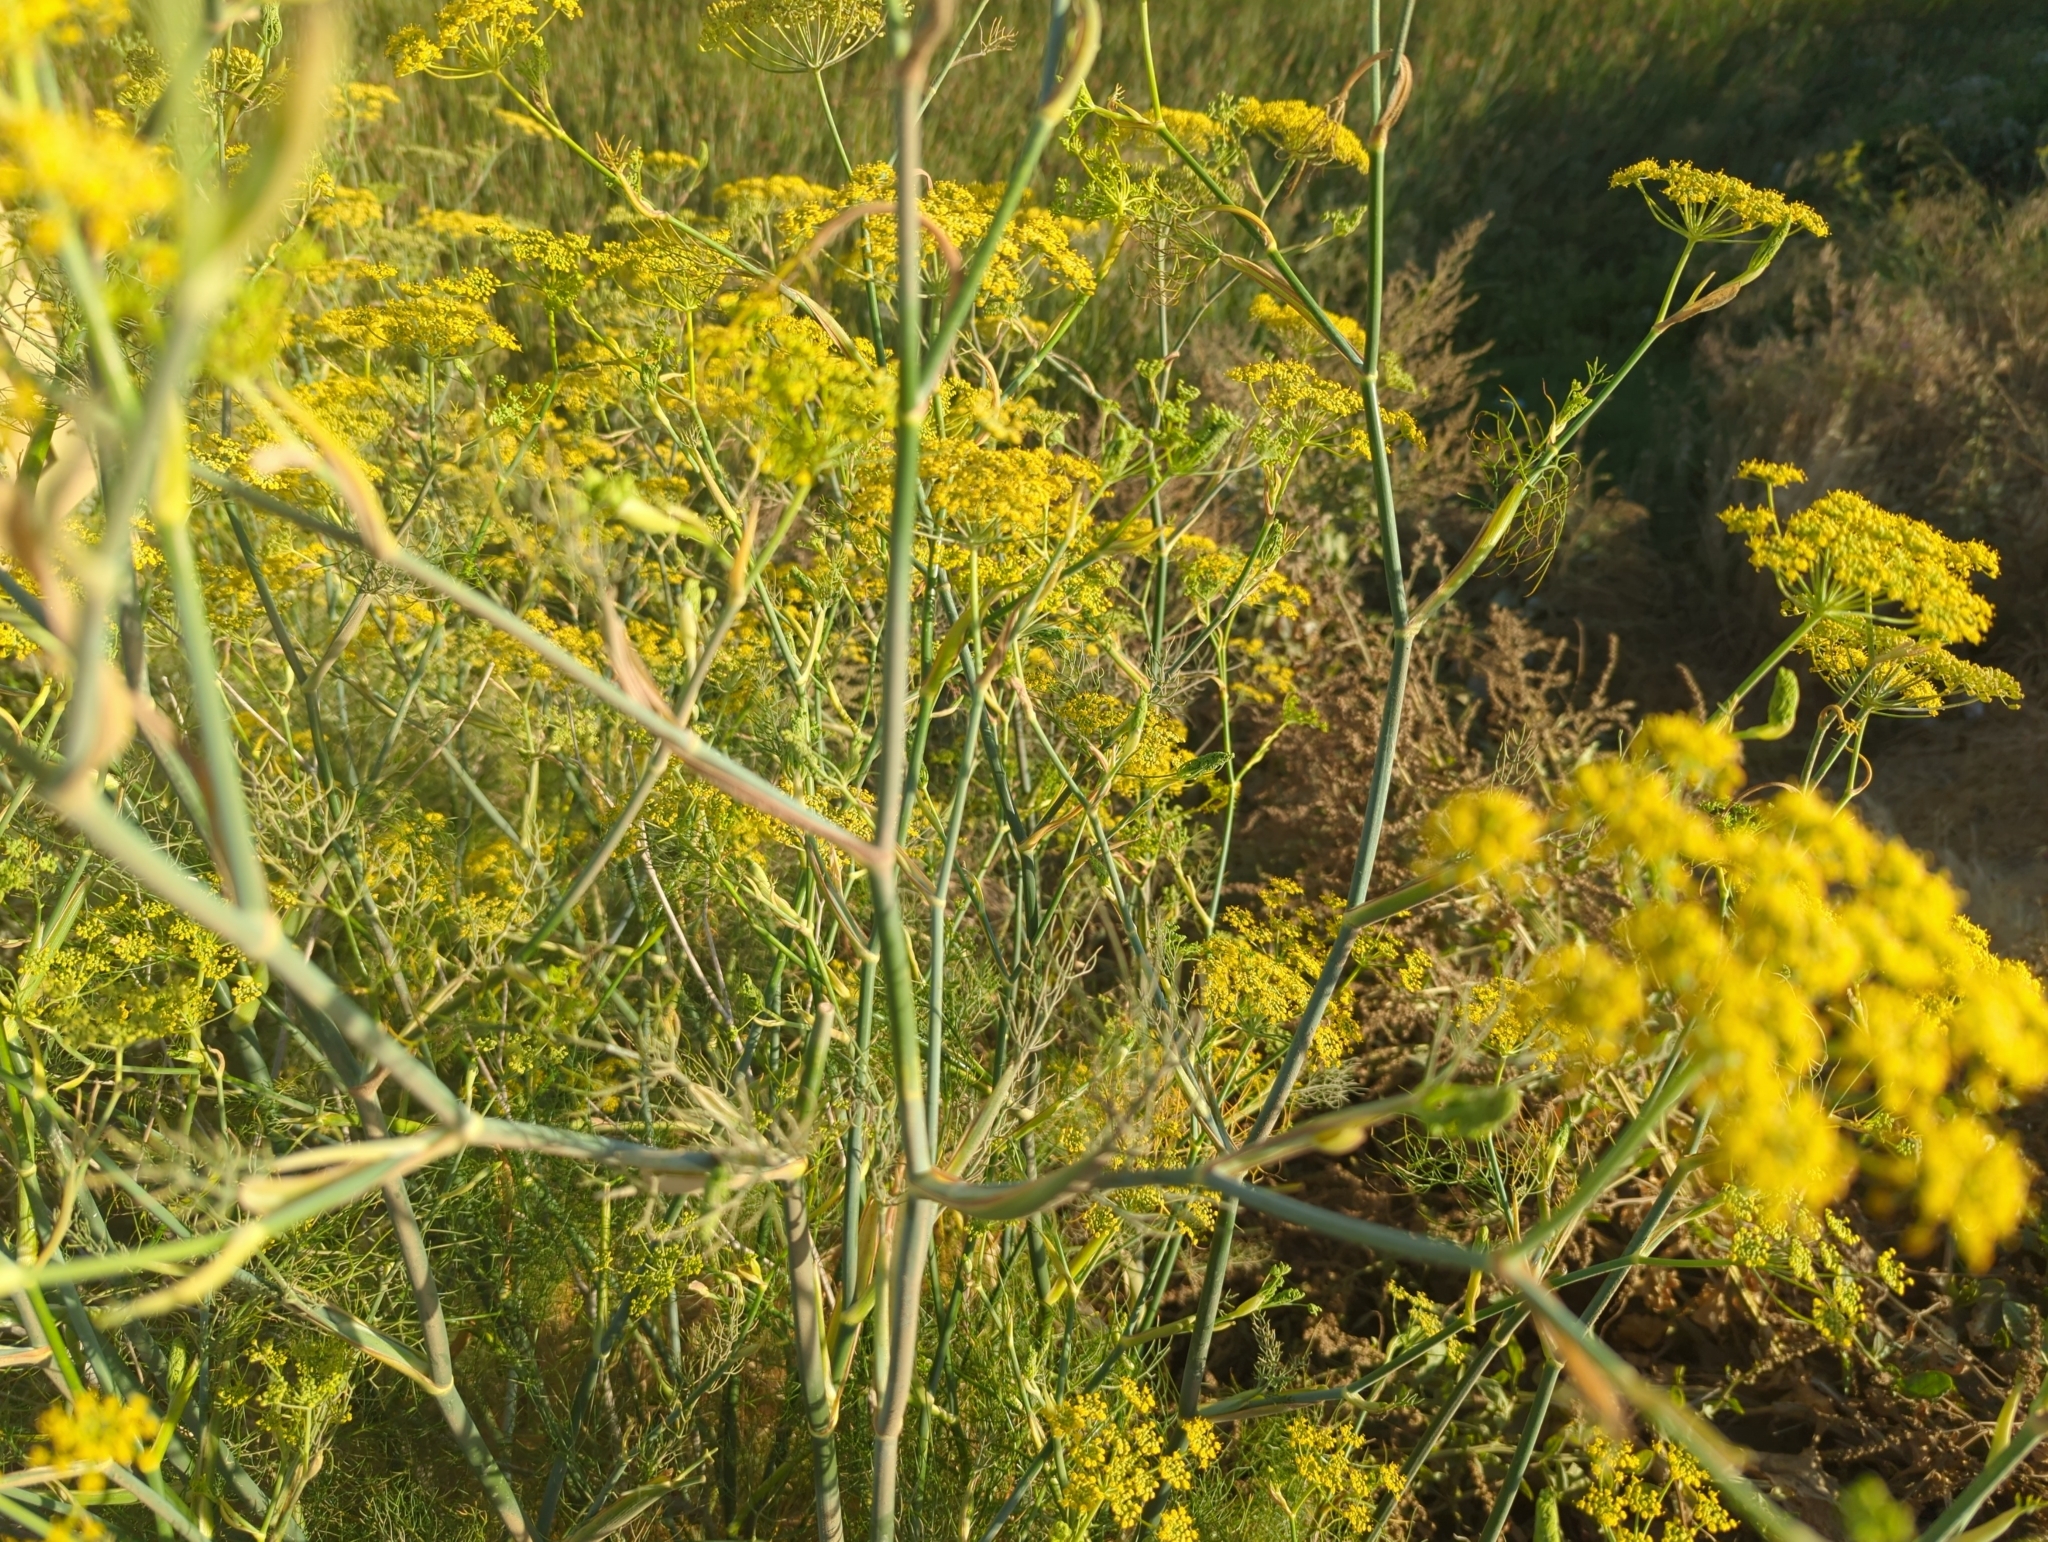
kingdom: Plantae
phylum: Tracheophyta
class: Magnoliopsida
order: Apiales
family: Apiaceae
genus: Foeniculum
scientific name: Foeniculum vulgare
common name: Fennel
